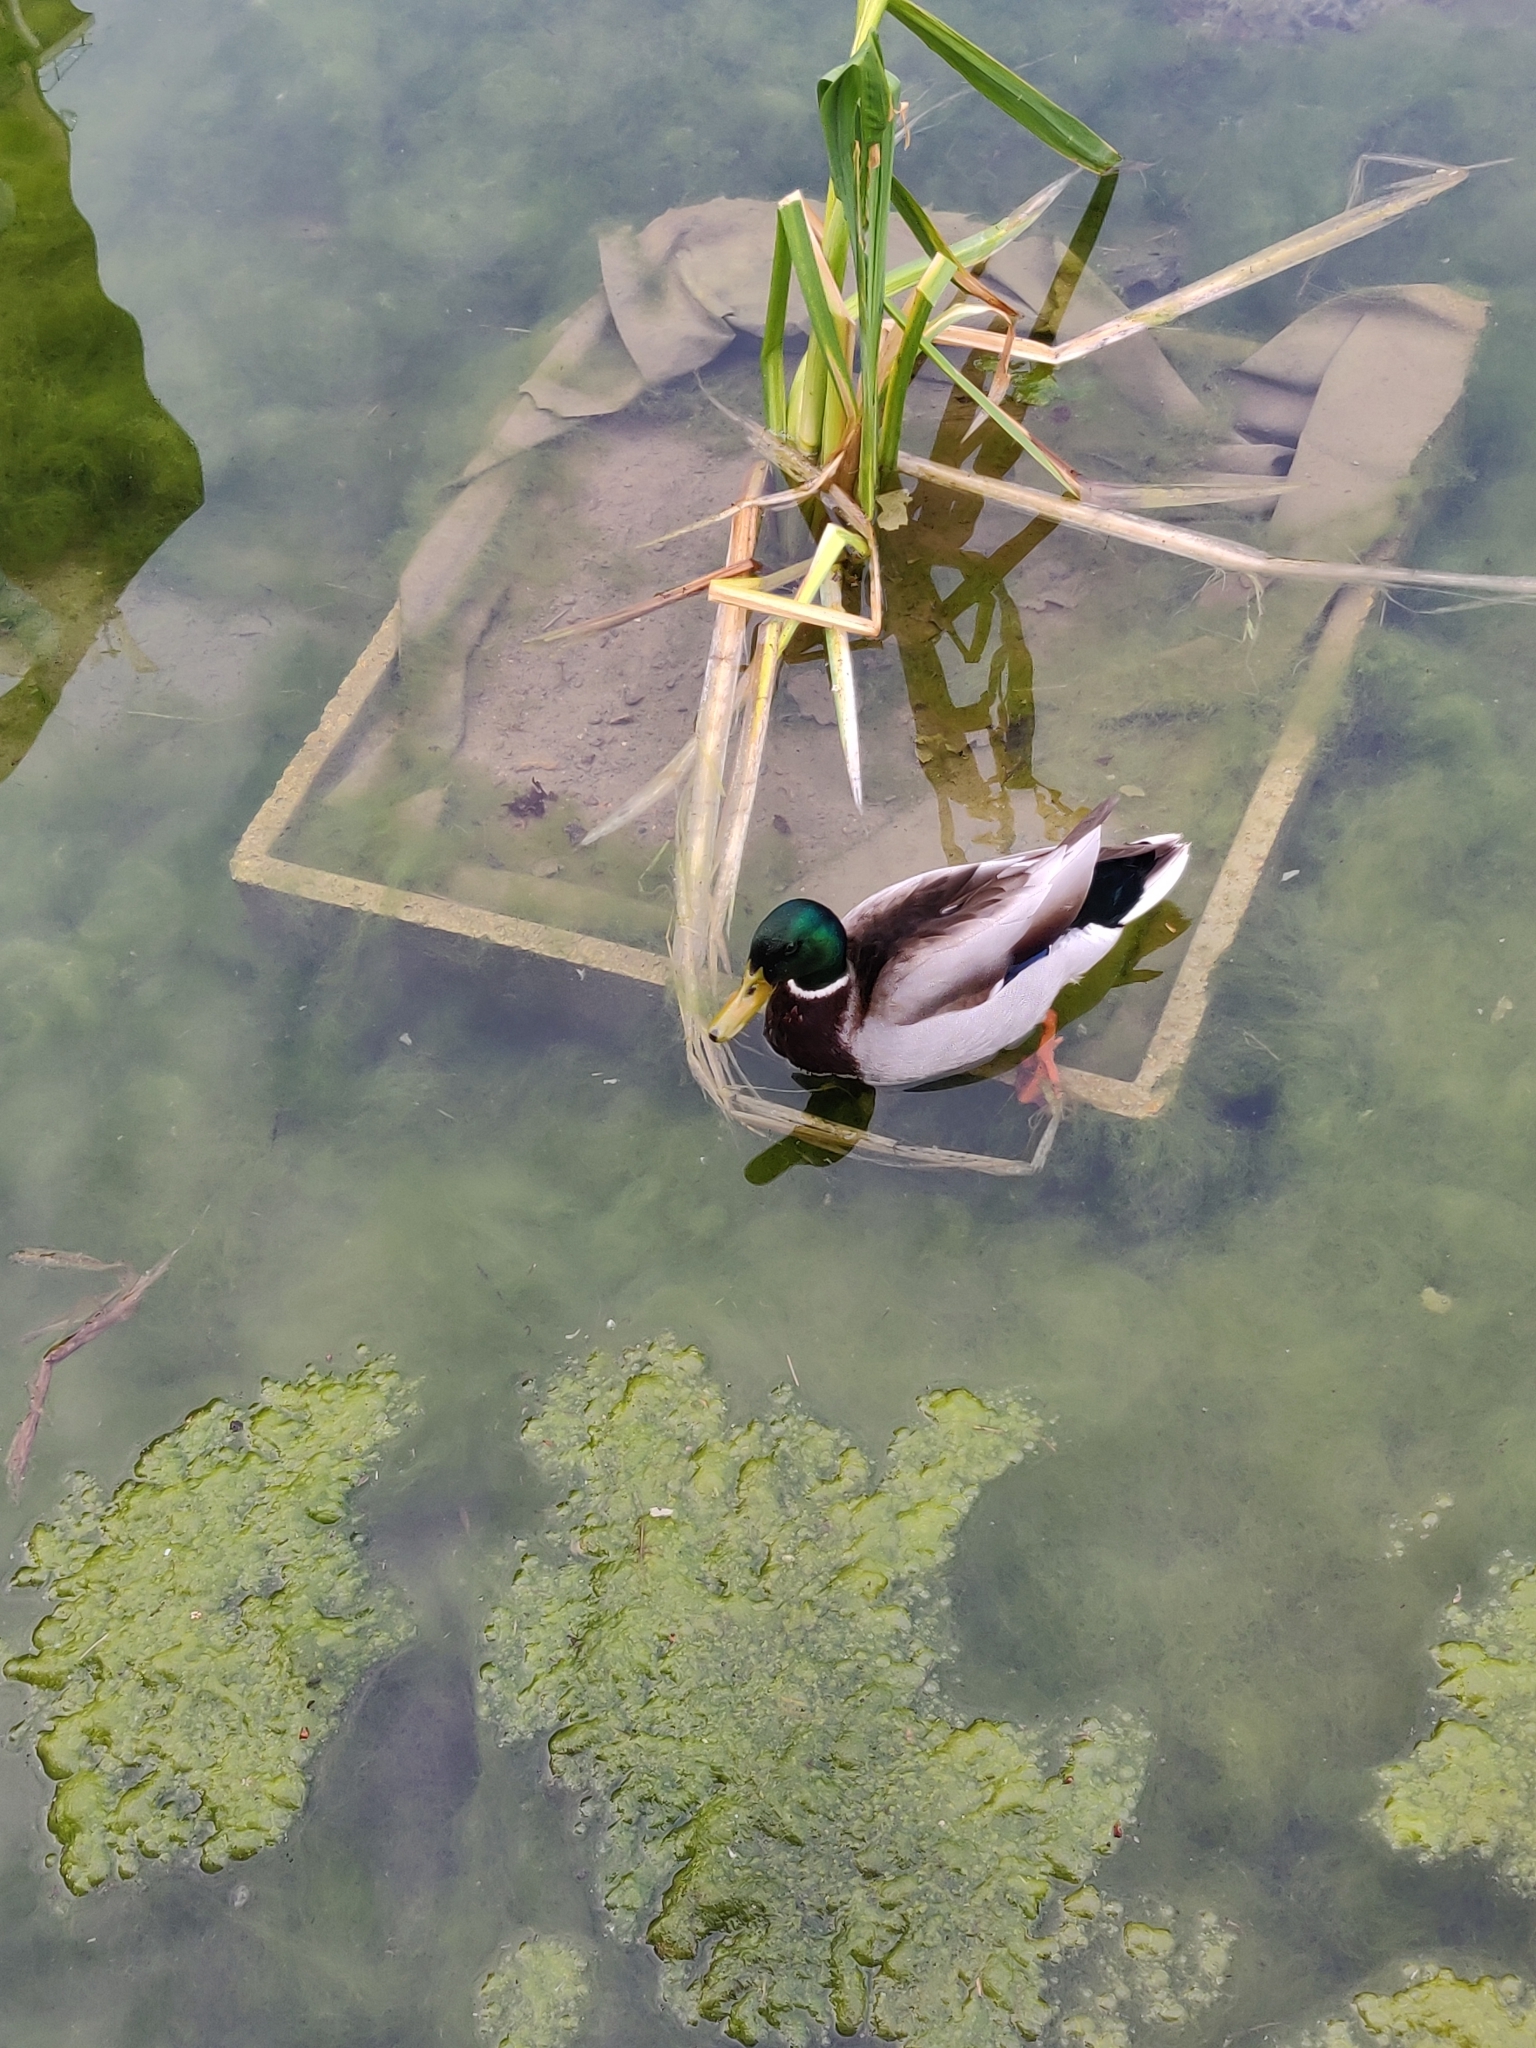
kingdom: Animalia
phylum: Chordata
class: Aves
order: Anseriformes
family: Anatidae
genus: Anas
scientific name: Anas platyrhynchos
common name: Mallard
